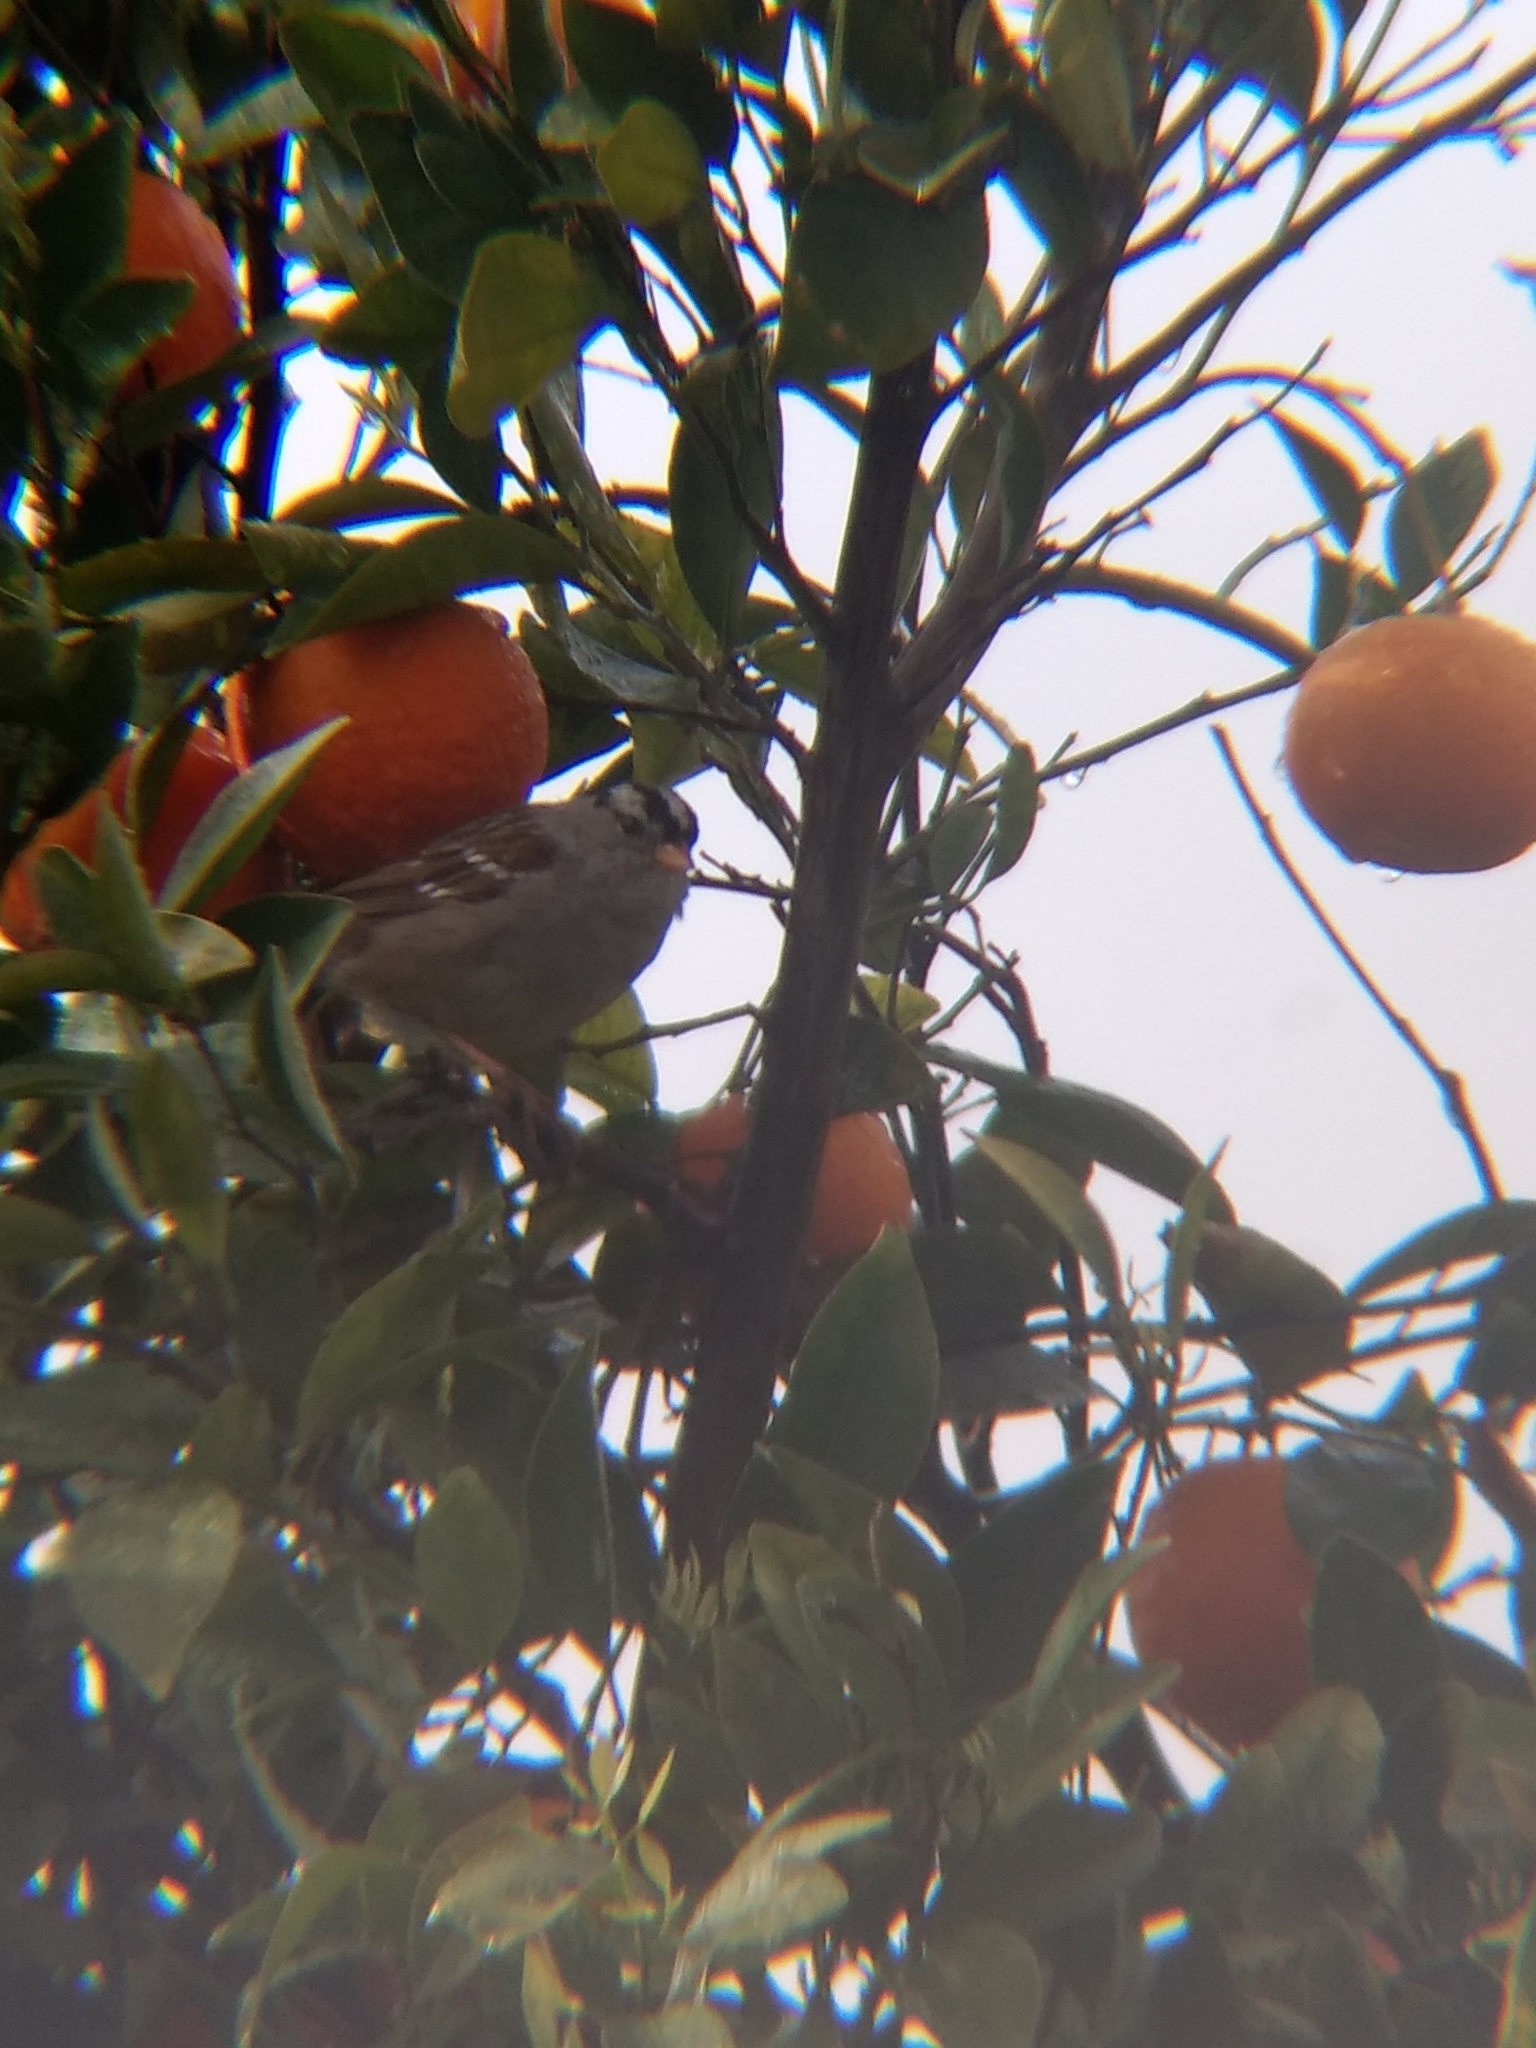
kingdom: Animalia
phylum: Chordata
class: Aves
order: Passeriformes
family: Passerellidae
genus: Zonotrichia
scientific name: Zonotrichia leucophrys
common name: White-crowned sparrow
